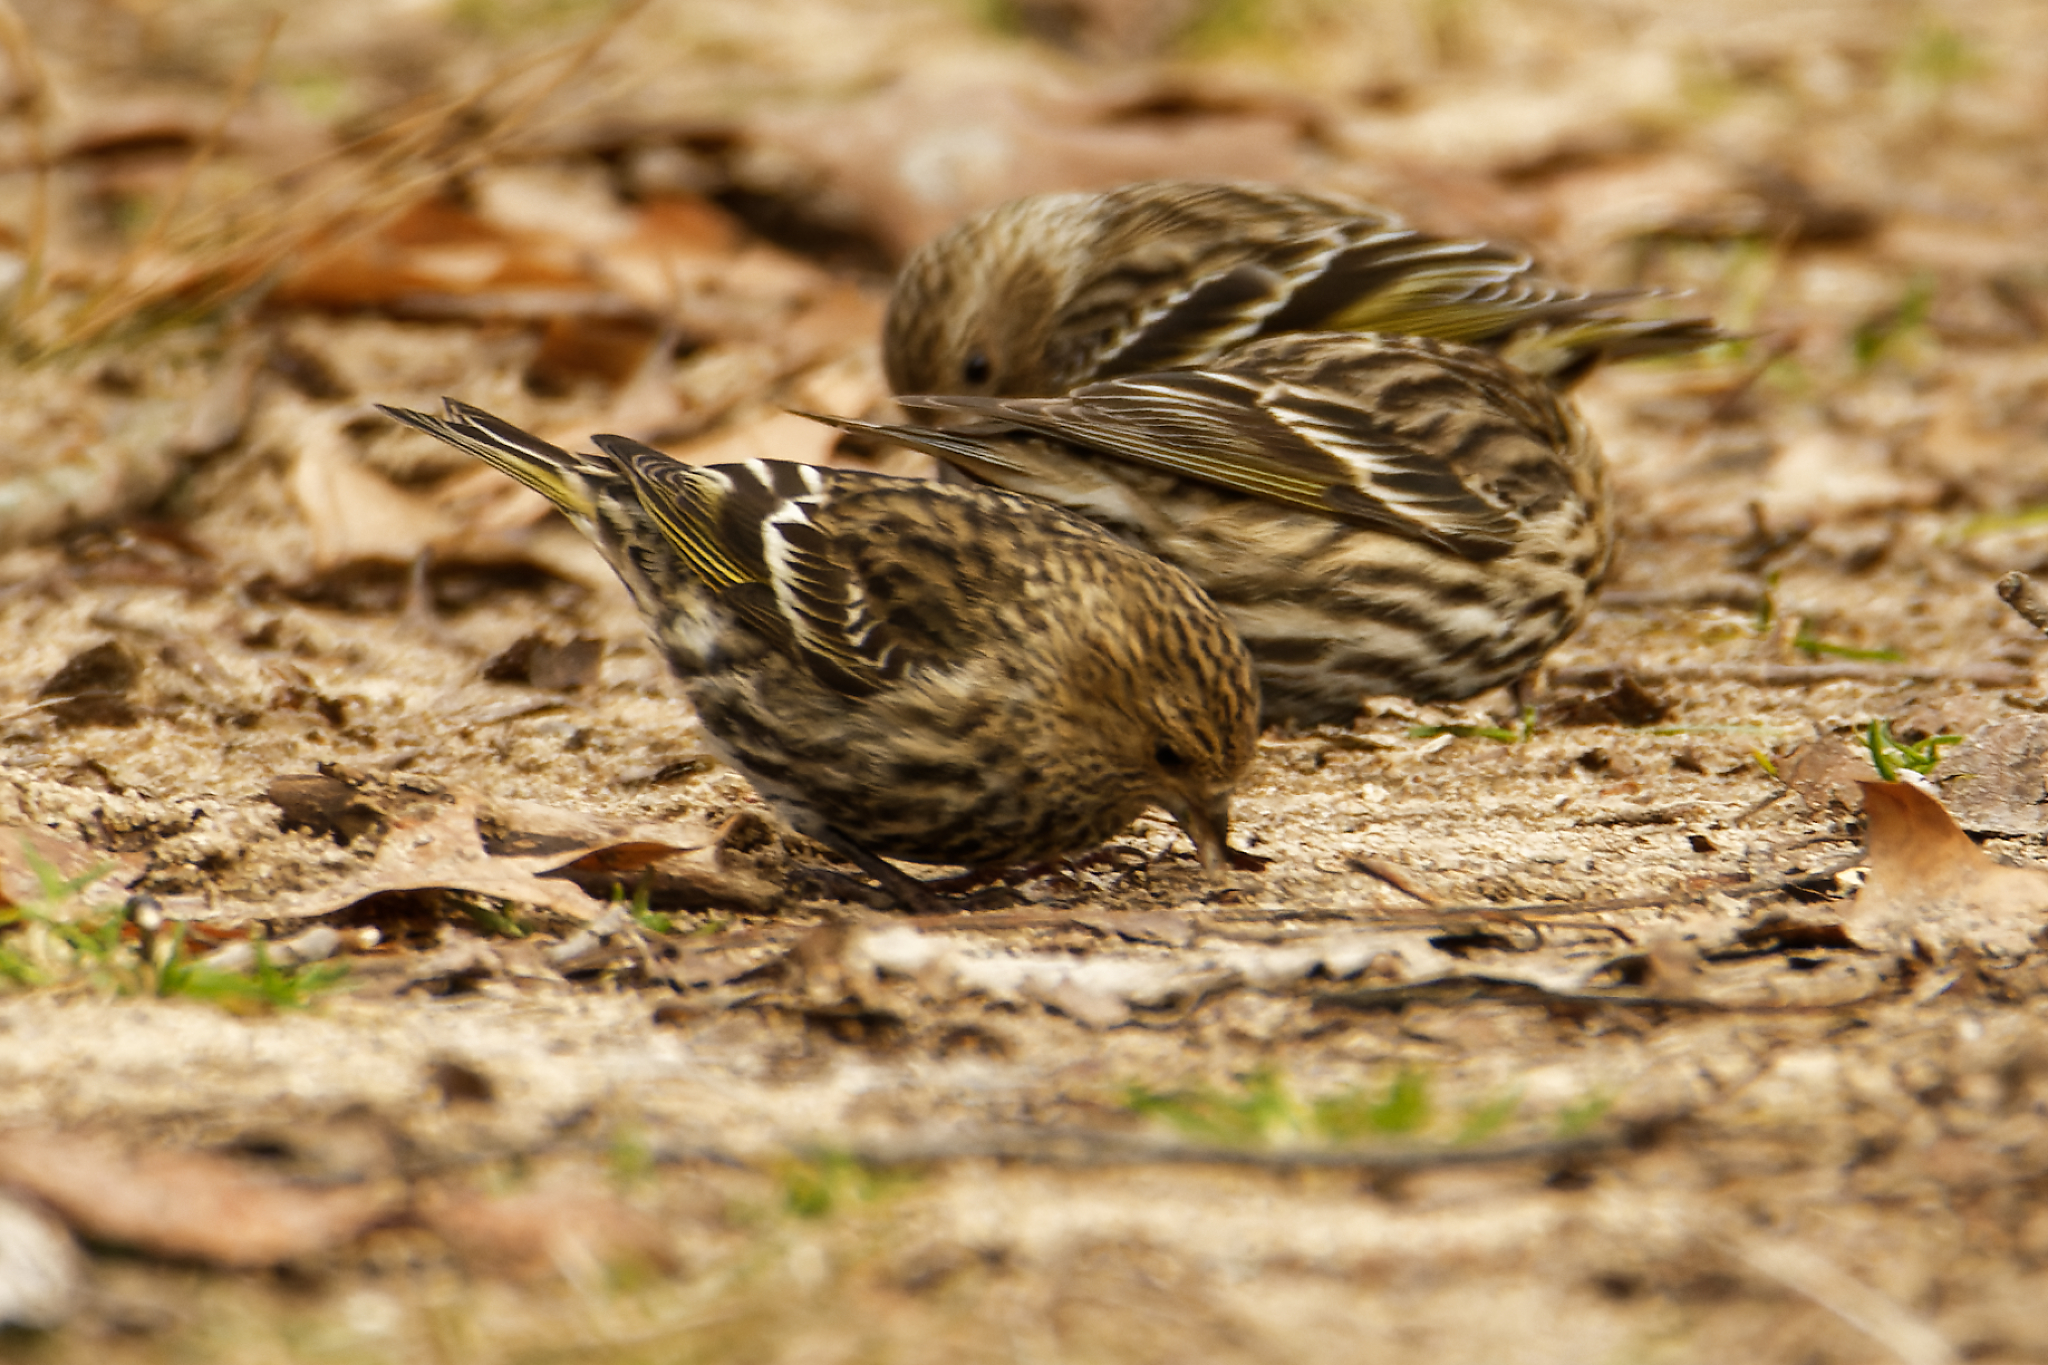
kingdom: Animalia
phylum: Chordata
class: Aves
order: Passeriformes
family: Fringillidae
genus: Spinus
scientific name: Spinus pinus
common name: Pine siskin
